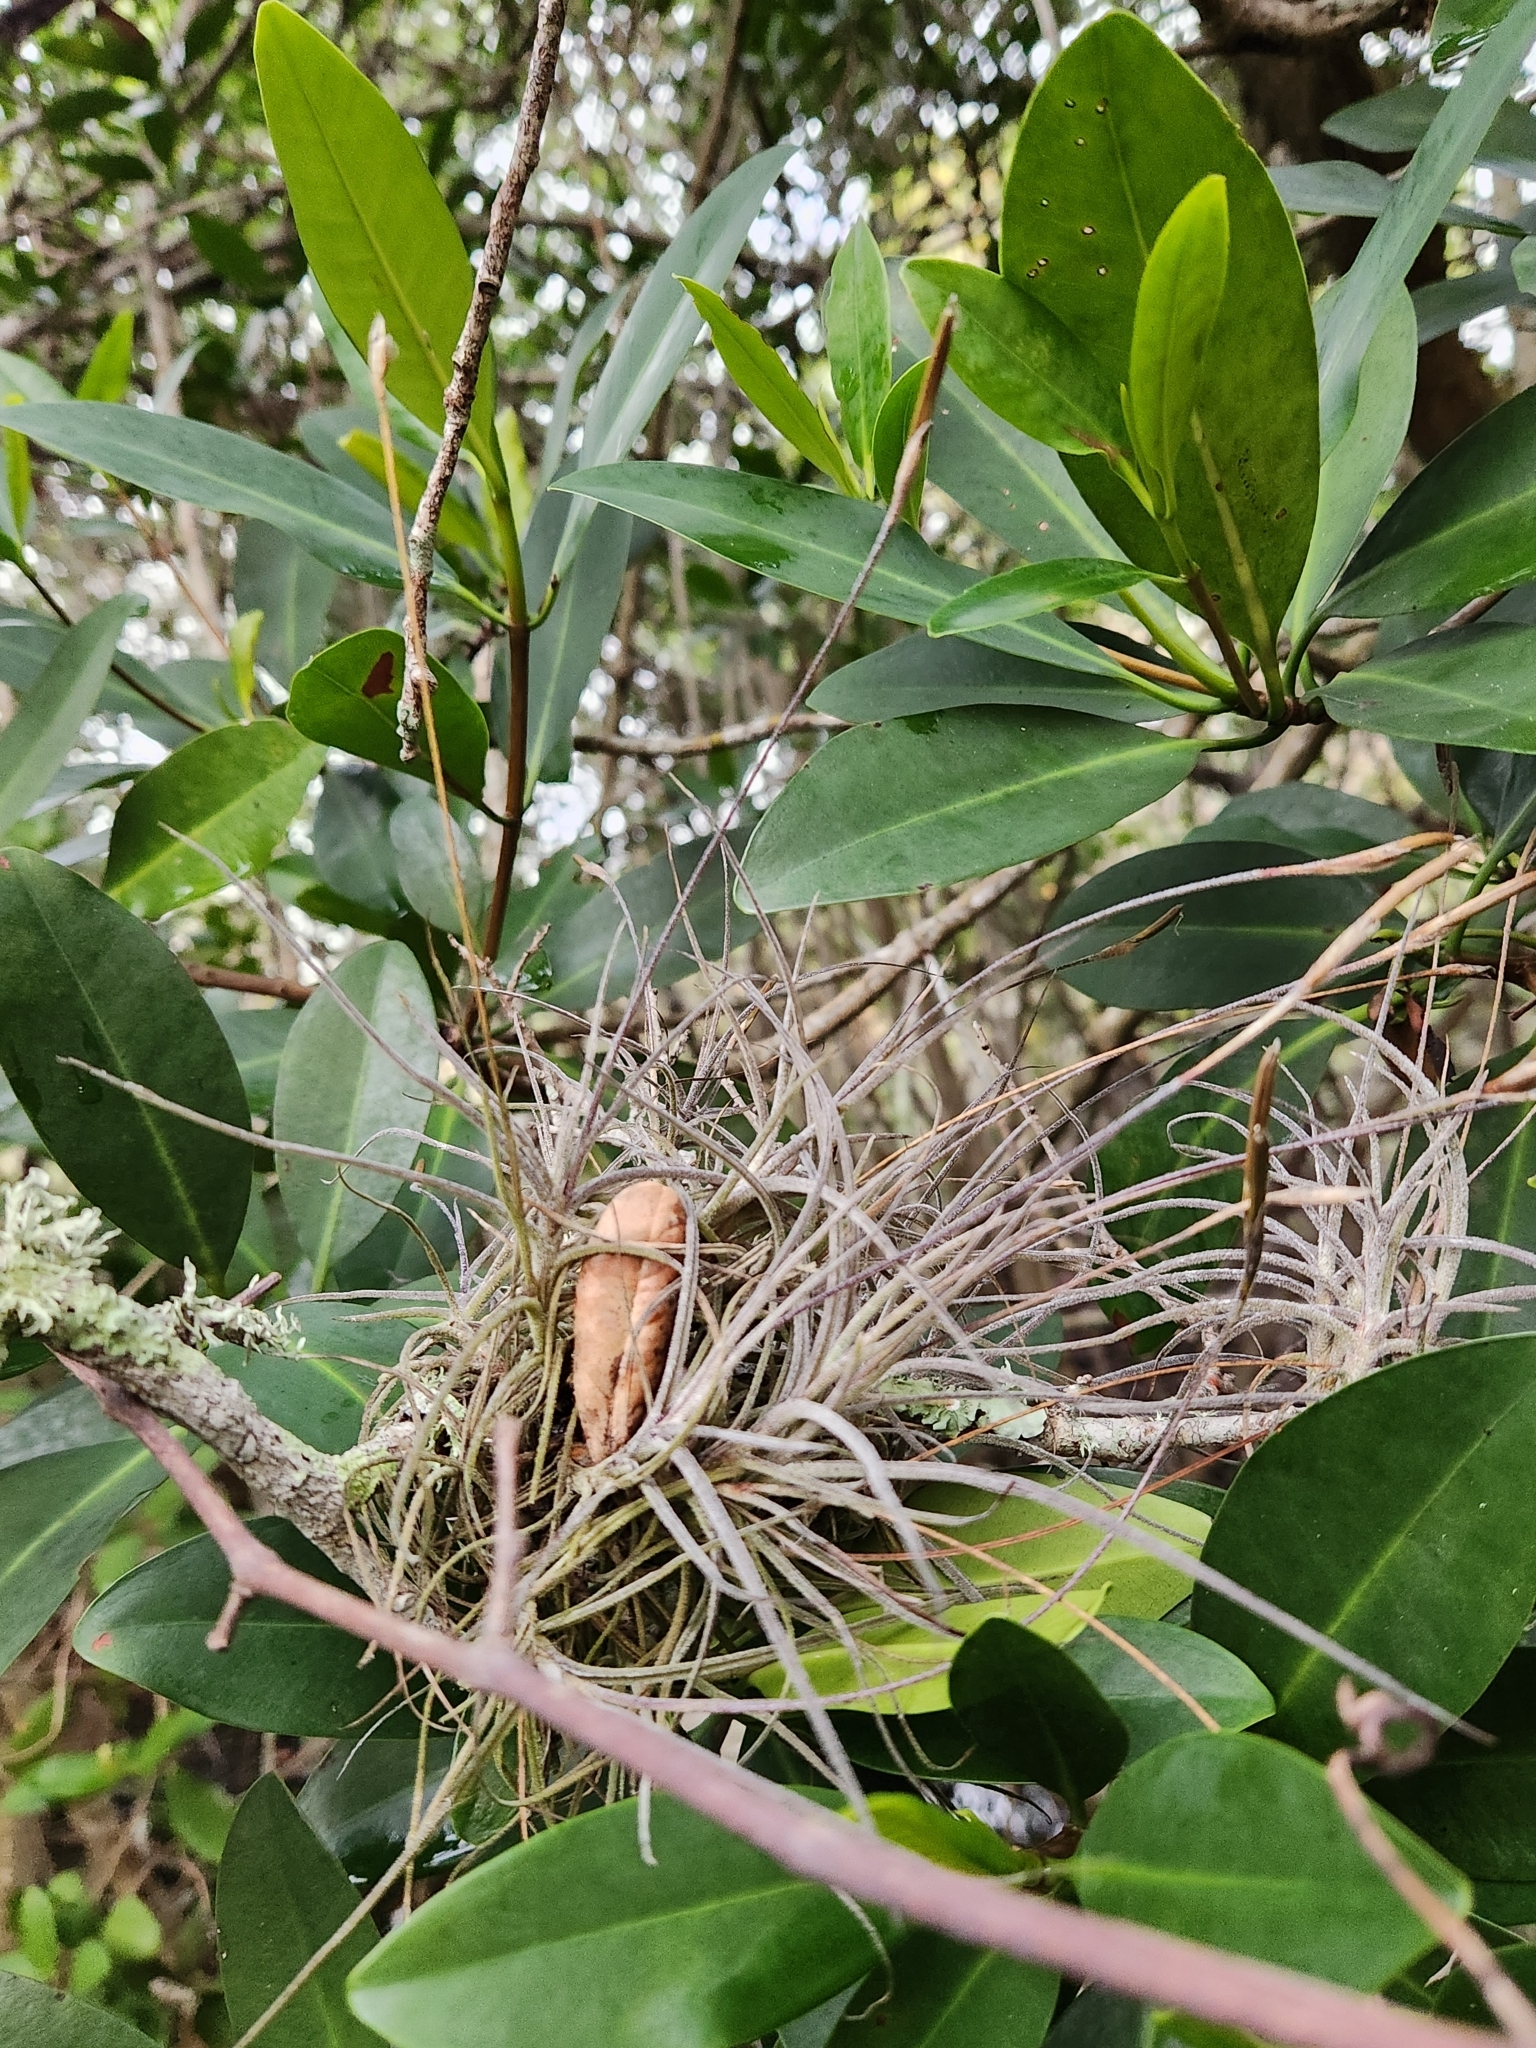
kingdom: Plantae
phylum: Tracheophyta
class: Liliopsida
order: Poales
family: Bromeliaceae
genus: Tillandsia
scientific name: Tillandsia recurvata
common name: Small ballmoss
